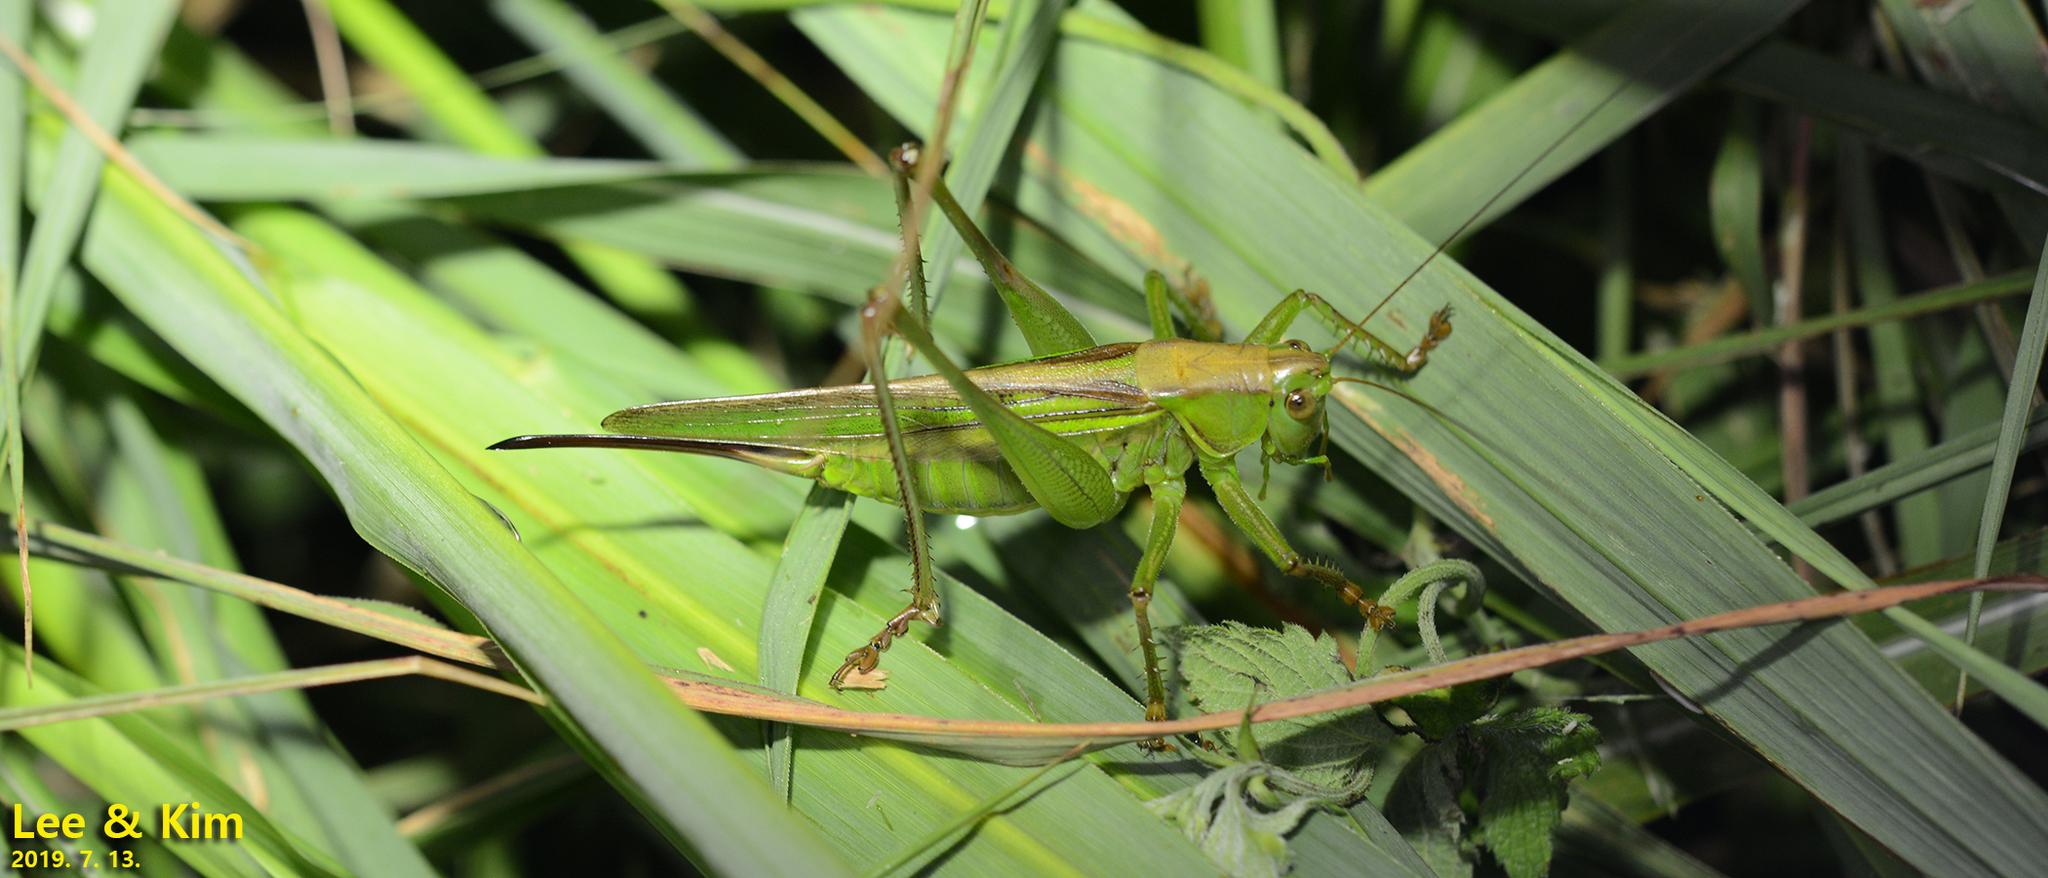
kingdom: Animalia
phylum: Arthropoda
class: Insecta
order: Orthoptera
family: Tettigoniidae
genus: Gampsocleis
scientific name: Gampsocleis ussuriensis
